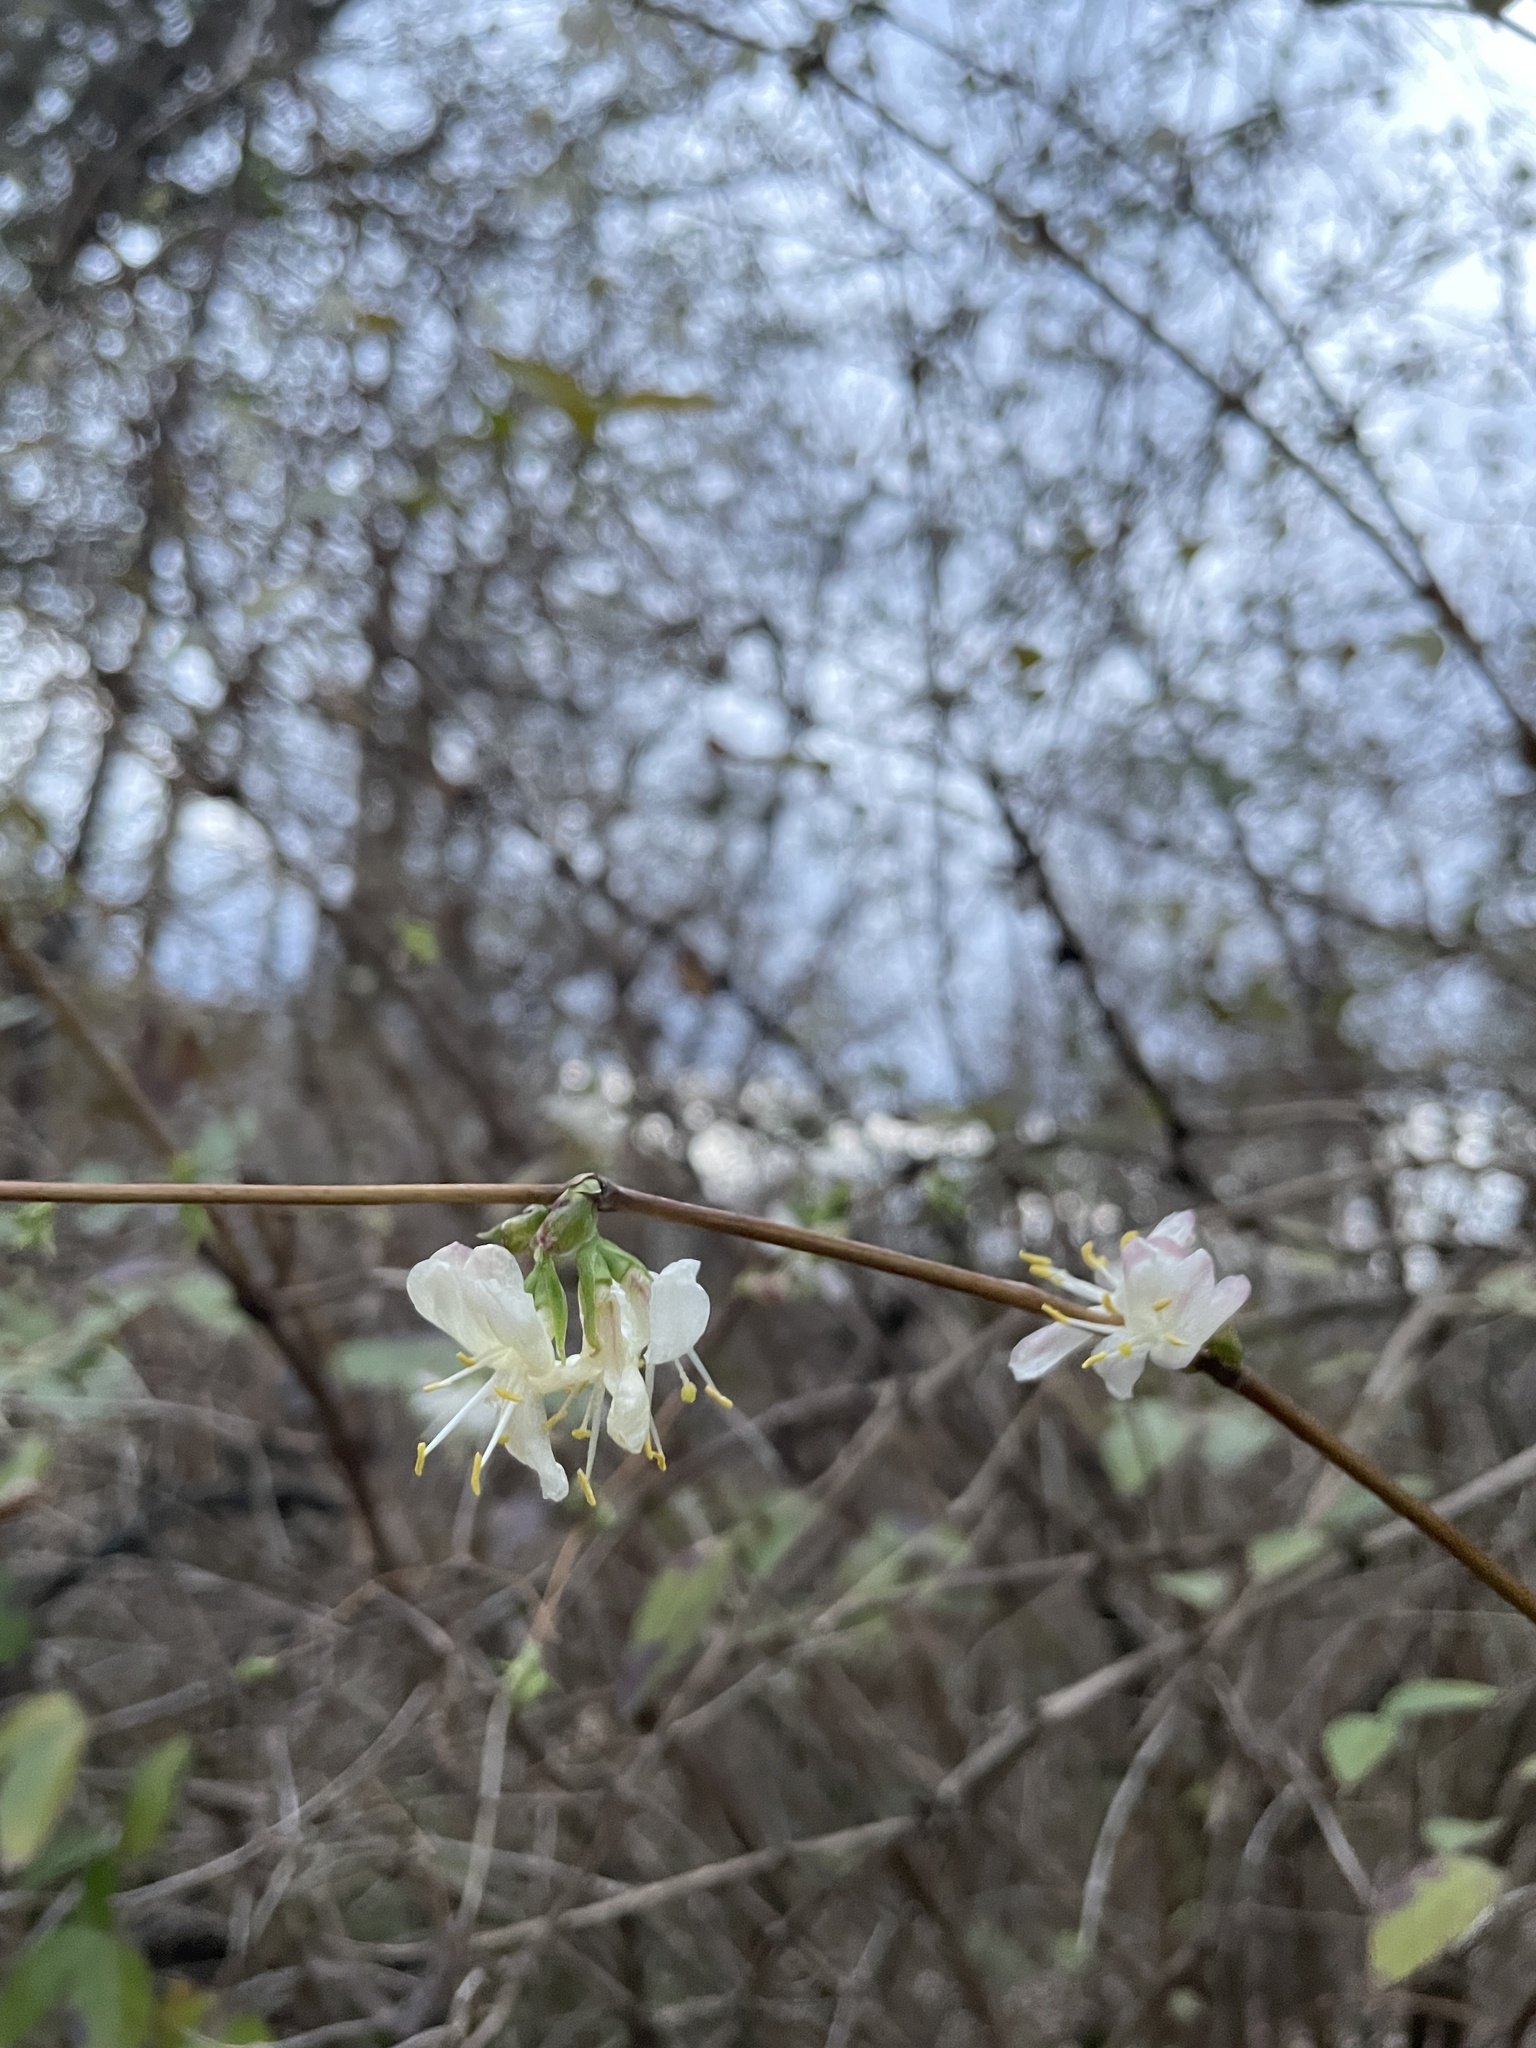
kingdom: Plantae
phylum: Tracheophyta
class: Magnoliopsida
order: Dipsacales
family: Caprifoliaceae
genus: Lonicera
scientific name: Lonicera fragrantissima
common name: Fragrant honeysuckle
